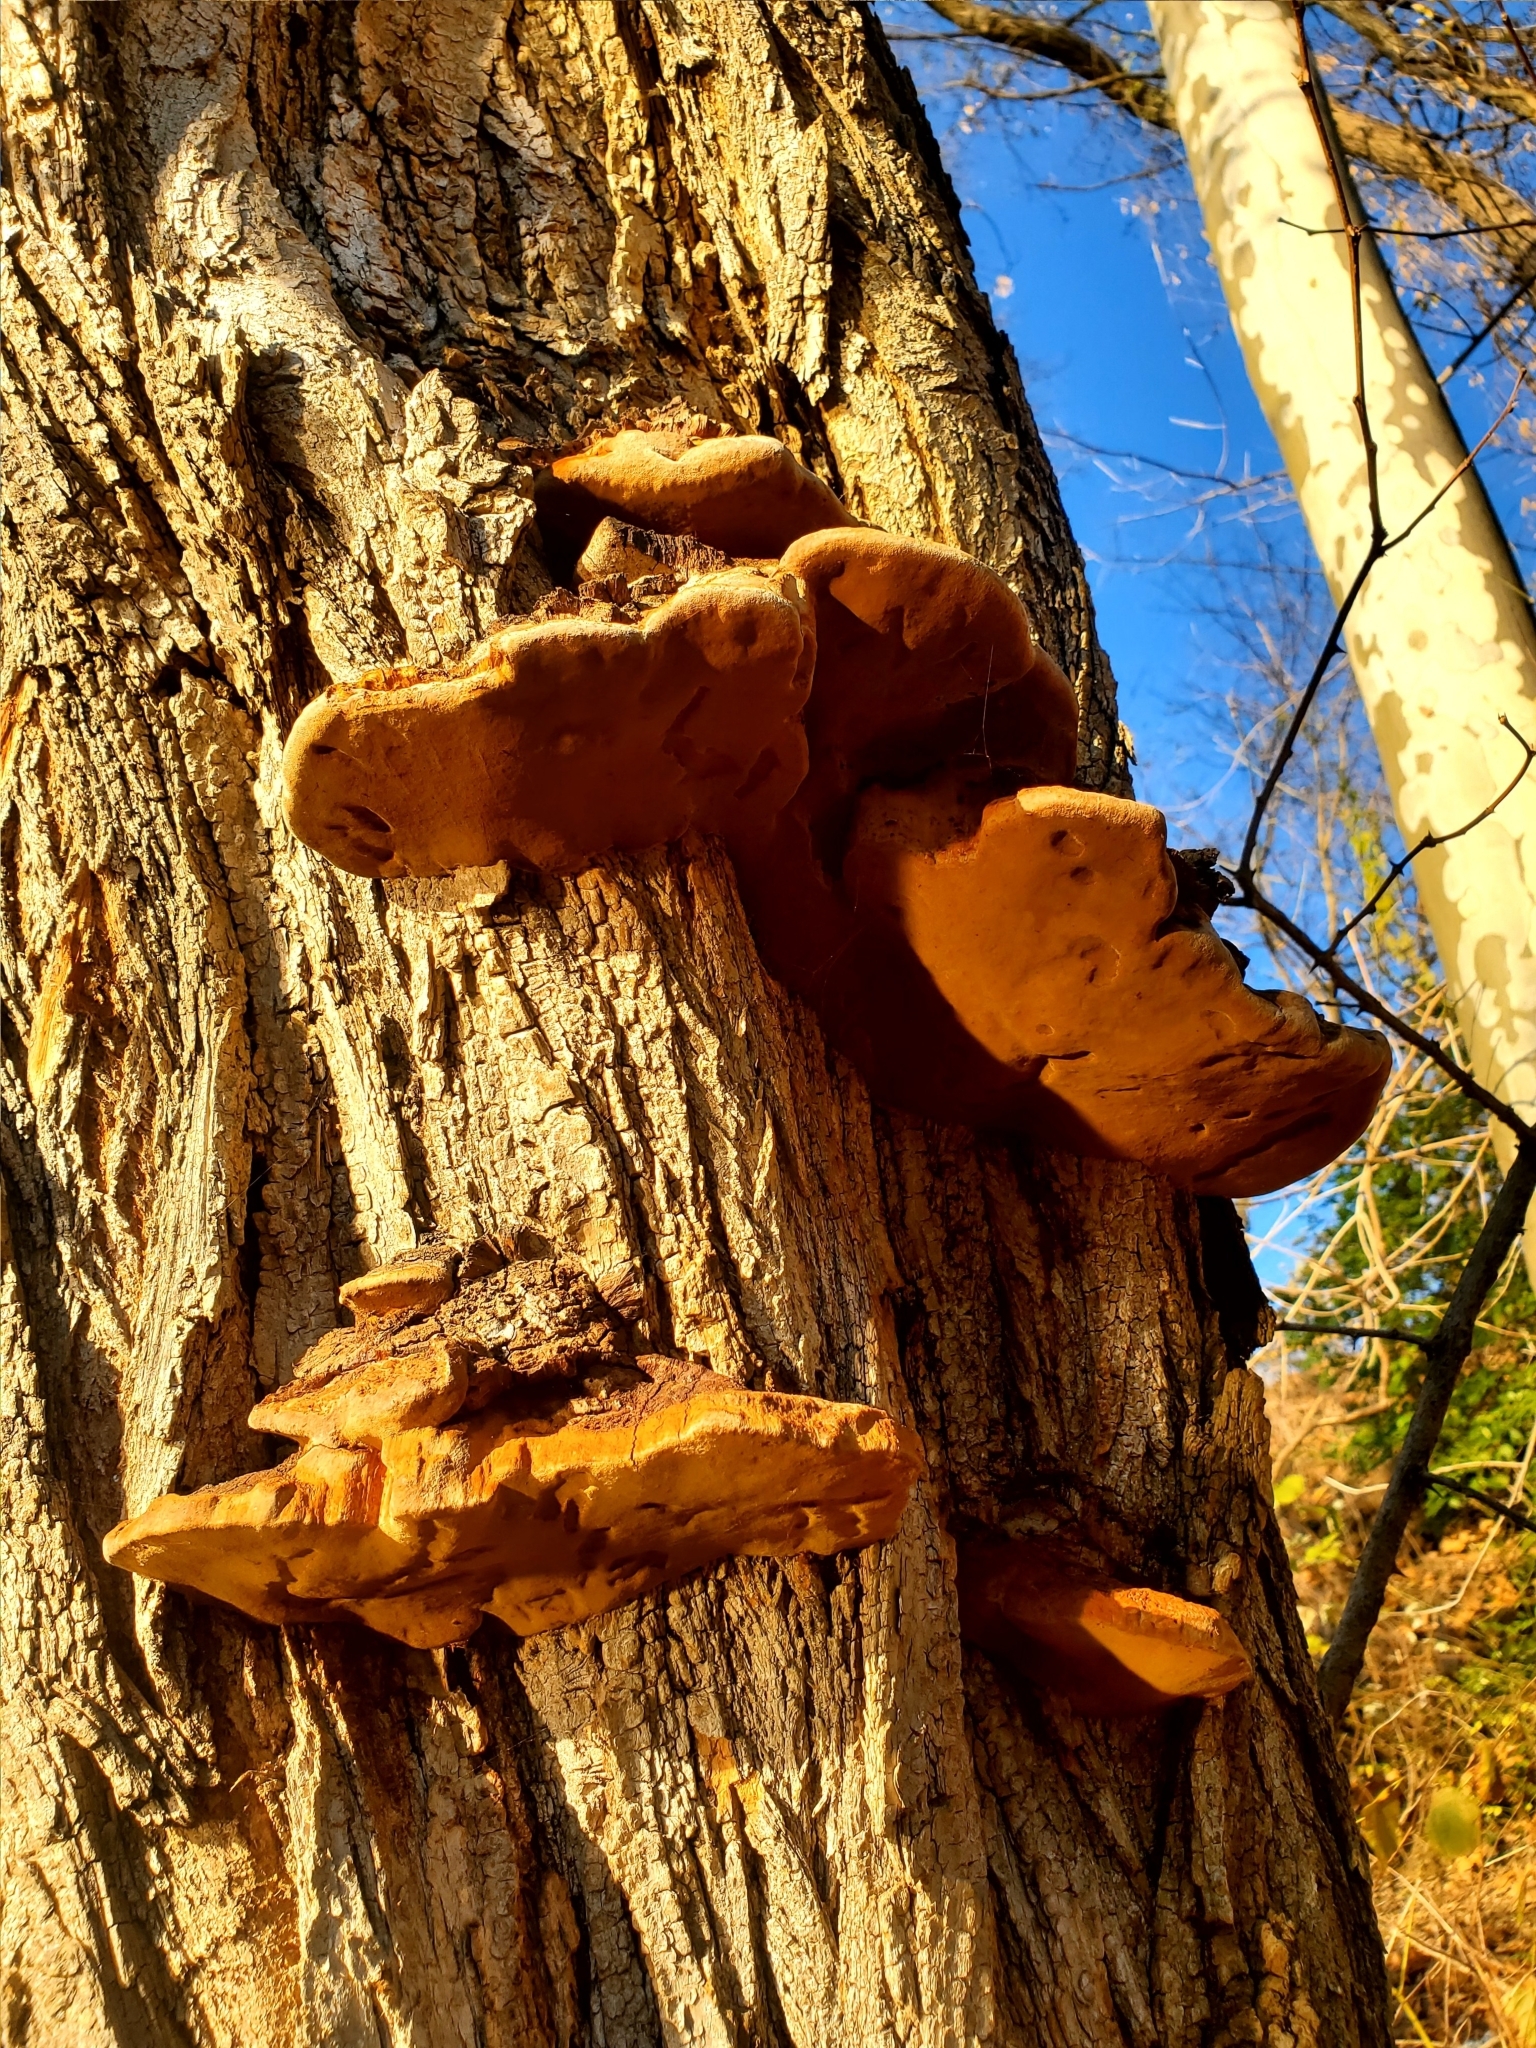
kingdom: Fungi
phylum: Basidiomycota
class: Agaricomycetes
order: Hymenochaetales
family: Hymenochaetaceae
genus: Phellinus
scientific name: Phellinus robiniae
